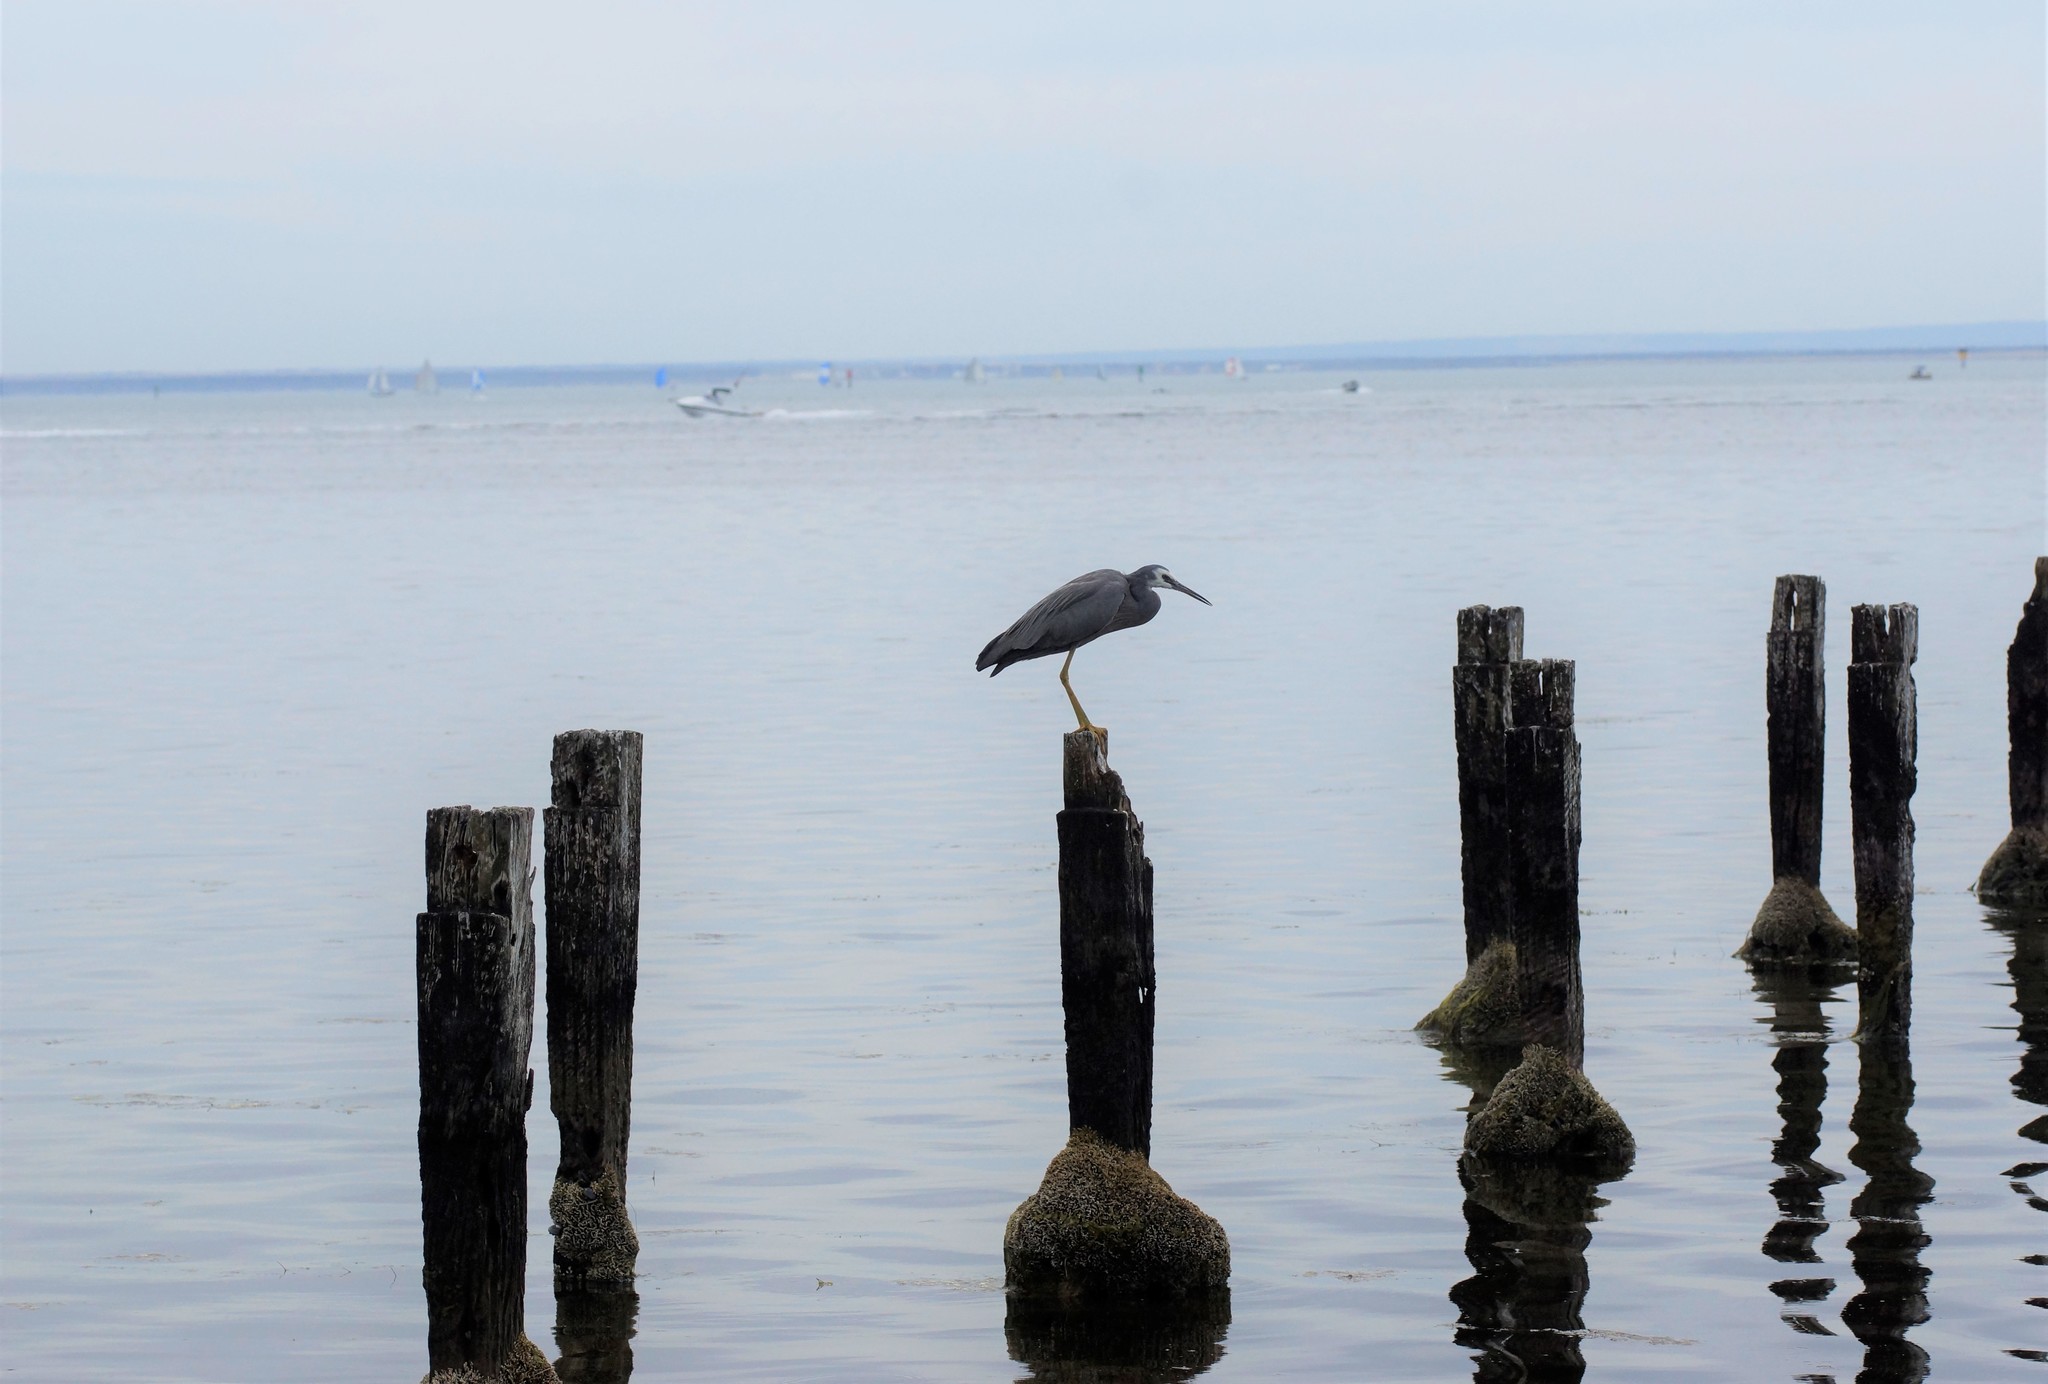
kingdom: Animalia
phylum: Chordata
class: Aves
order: Pelecaniformes
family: Ardeidae
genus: Egretta
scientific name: Egretta novaehollandiae
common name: White-faced heron
